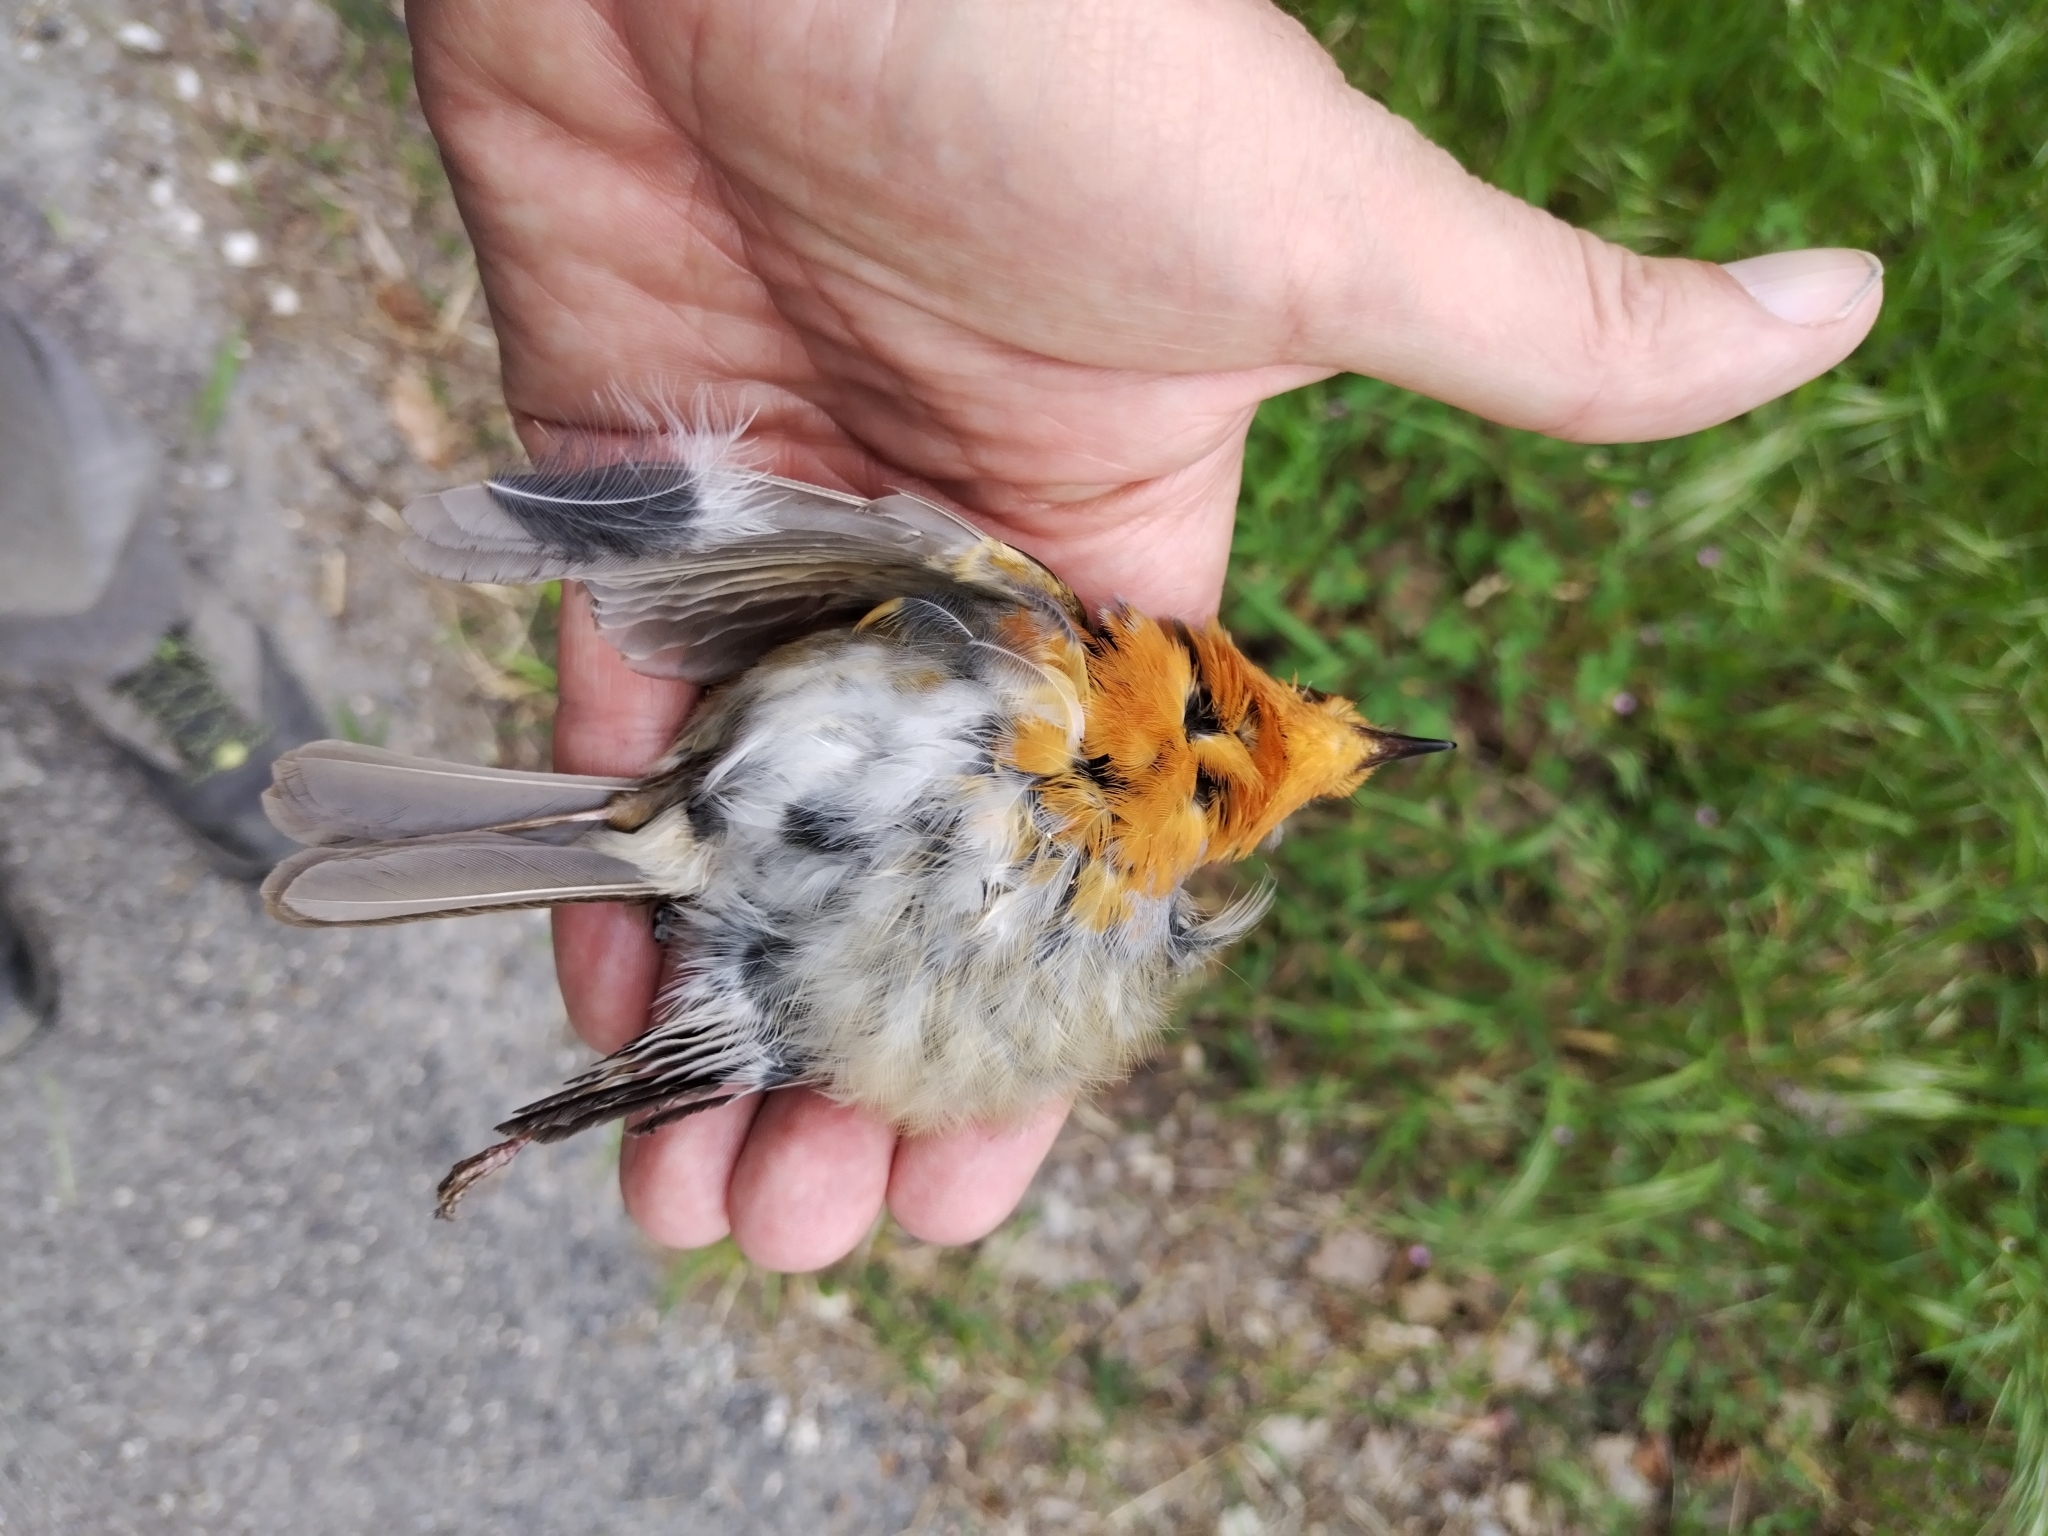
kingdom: Animalia
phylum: Chordata
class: Aves
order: Passeriformes
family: Muscicapidae
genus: Erithacus
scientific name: Erithacus rubecula
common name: European robin
